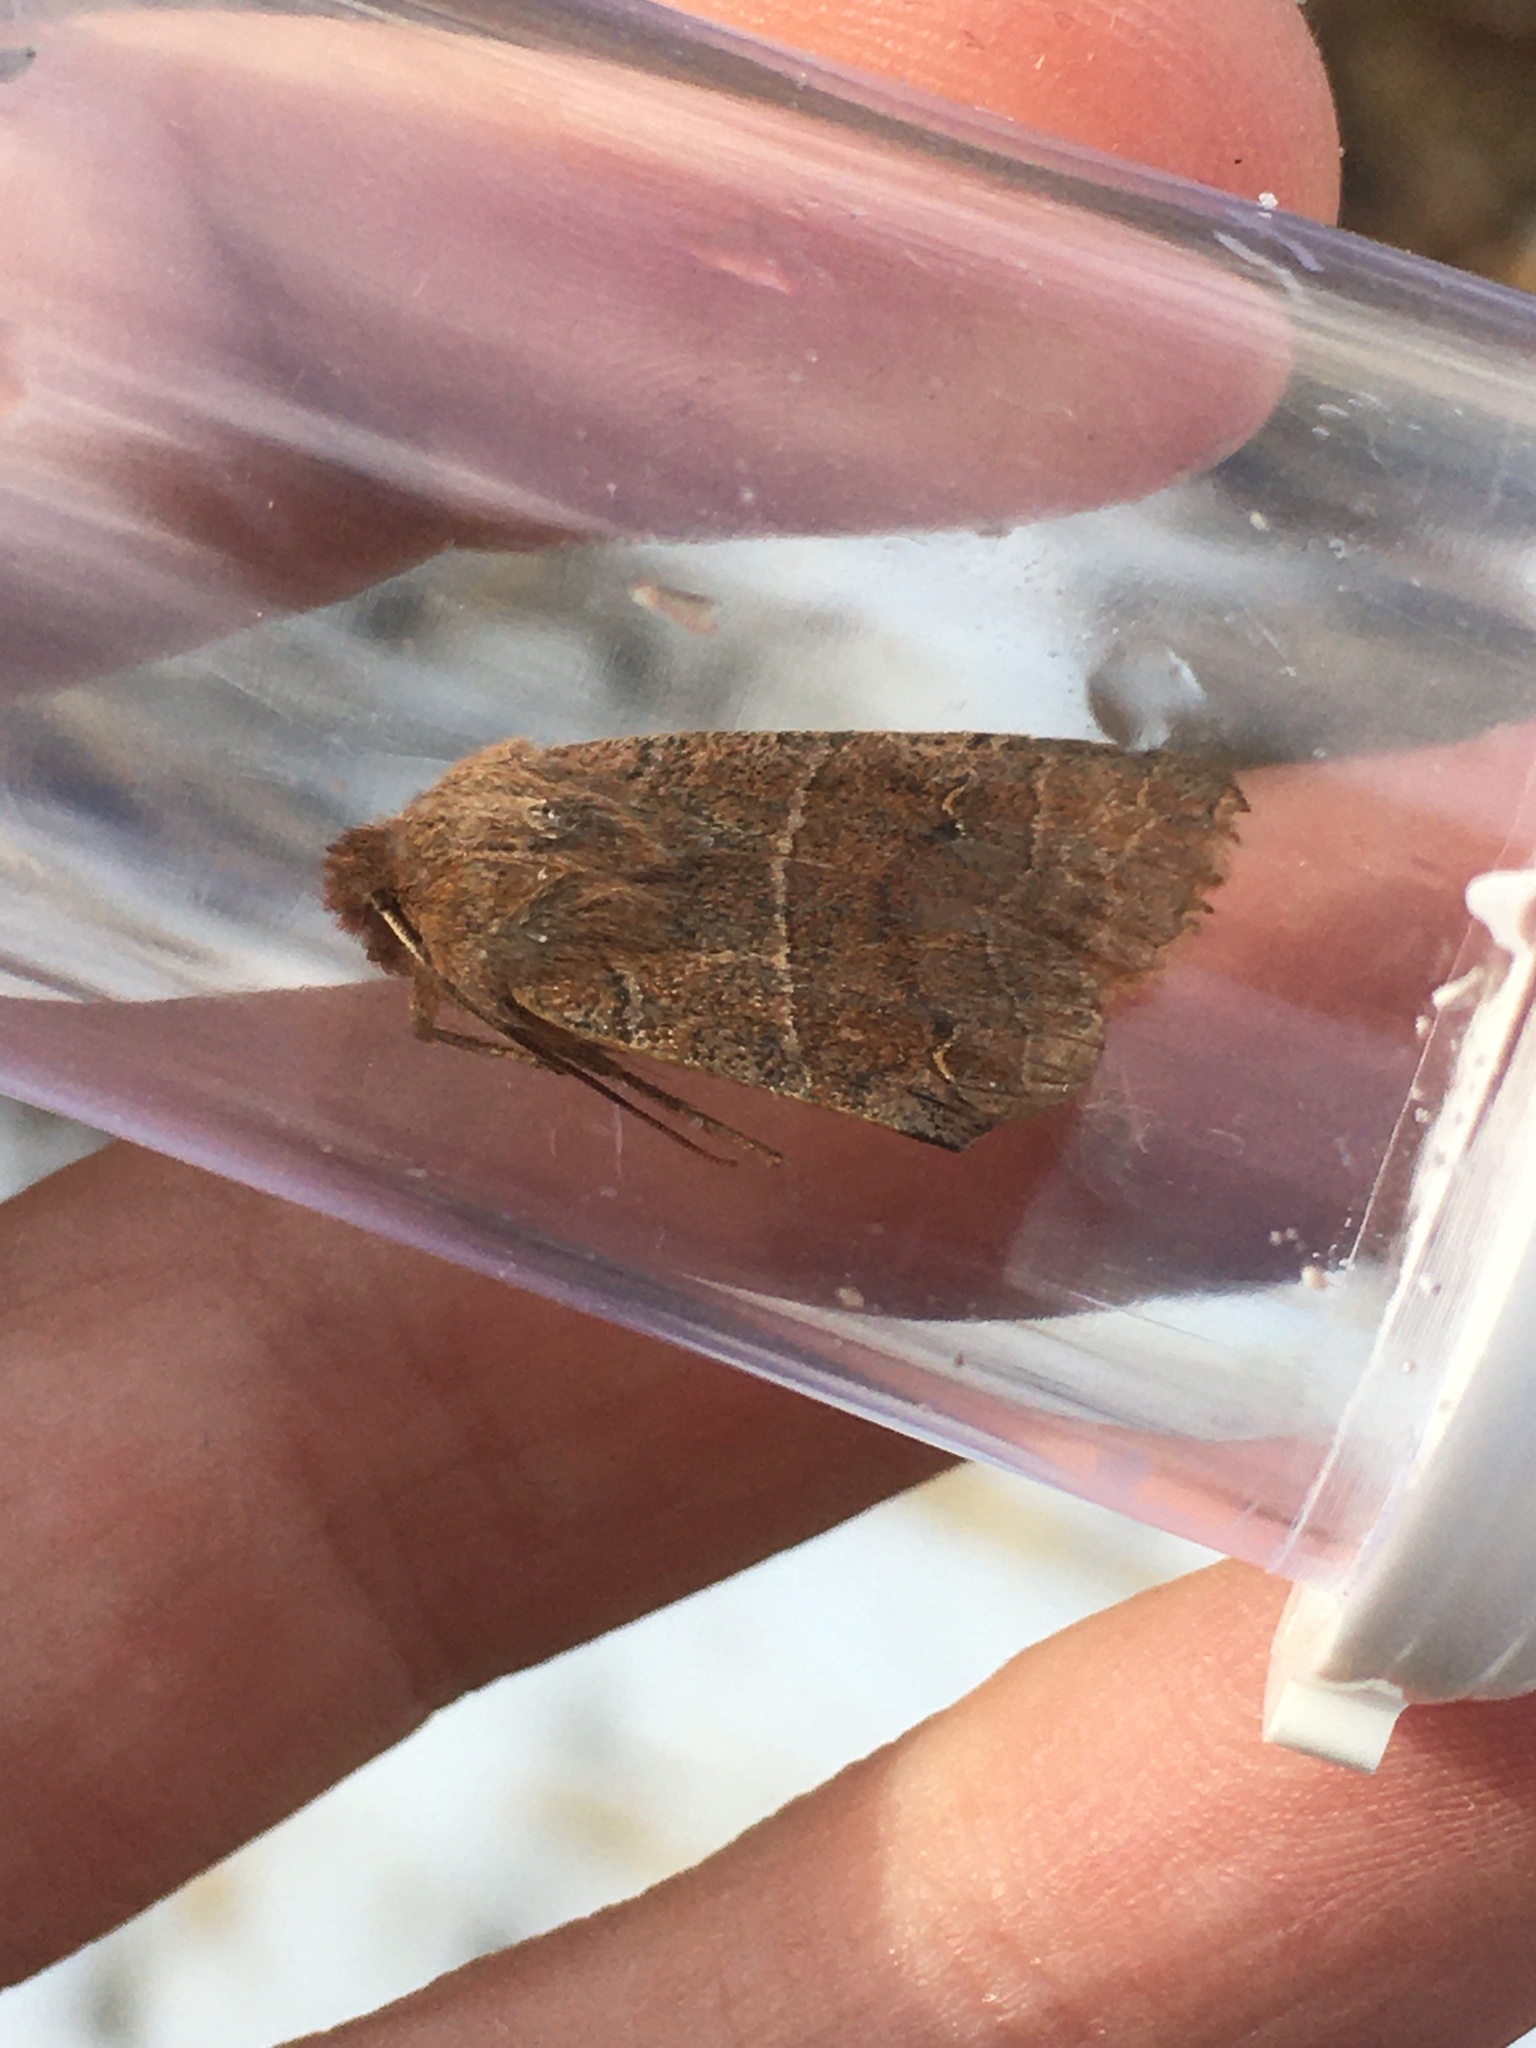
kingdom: Animalia
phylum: Arthropoda
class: Insecta
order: Lepidoptera
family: Noctuidae
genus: Eupsilia
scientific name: Eupsilia morrisoni
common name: Morrison's sallow
